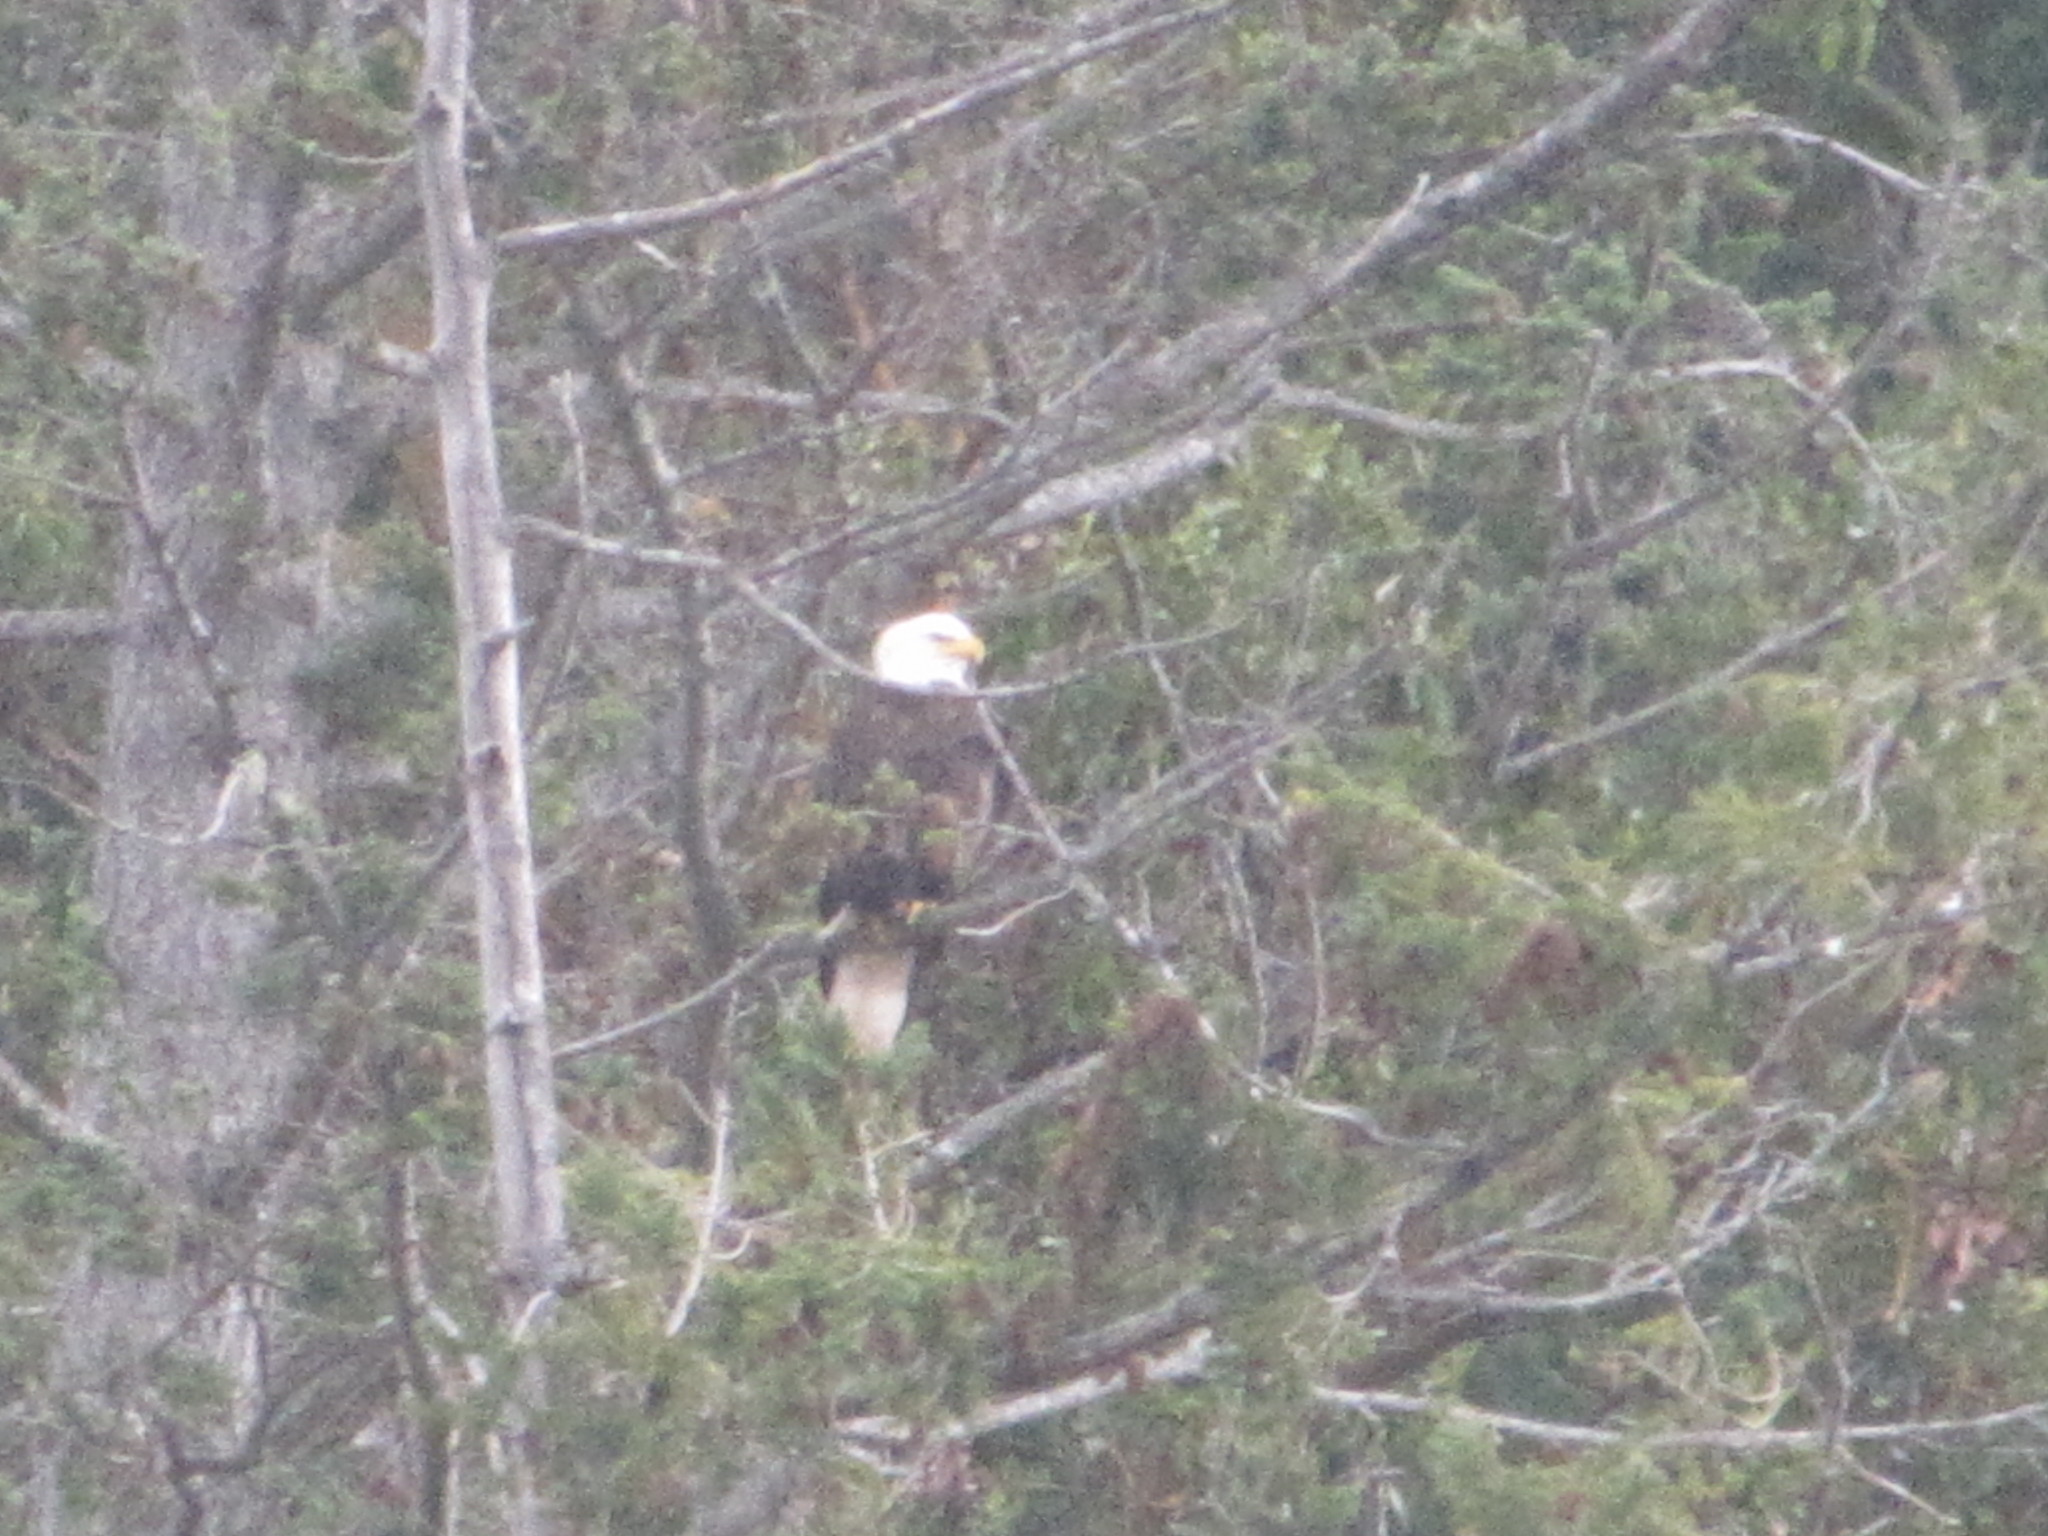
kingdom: Animalia
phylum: Chordata
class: Aves
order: Accipitriformes
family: Accipitridae
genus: Haliaeetus
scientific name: Haliaeetus leucocephalus
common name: Bald eagle
